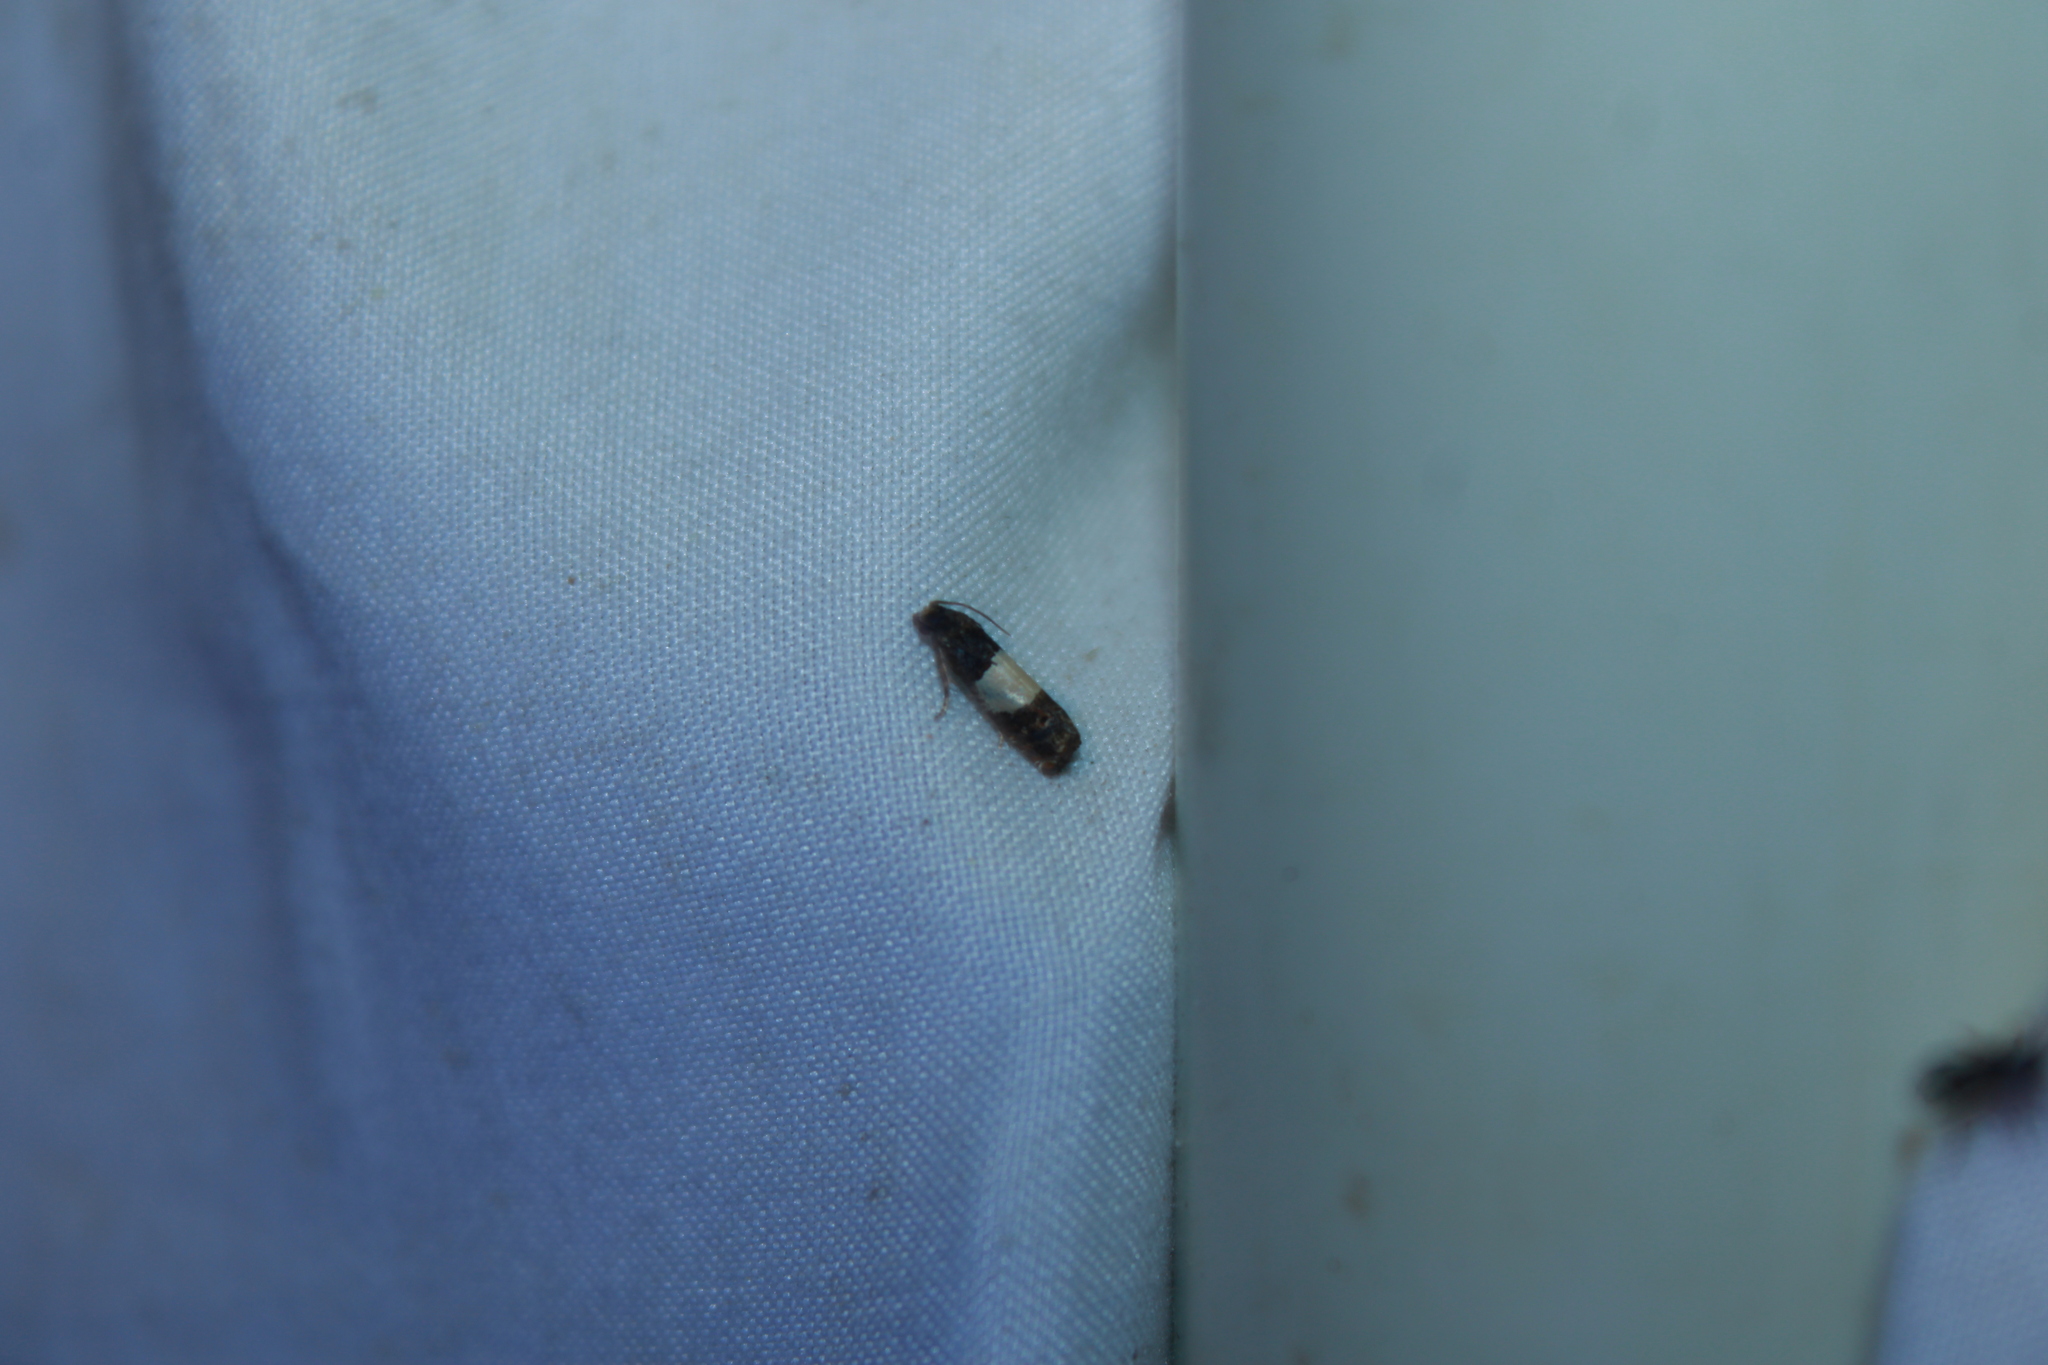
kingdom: Animalia
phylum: Arthropoda
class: Insecta
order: Lepidoptera
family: Tortricidae
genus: Epiblema
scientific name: Epiblema tripartitana
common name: Three-parted epiblema moth
